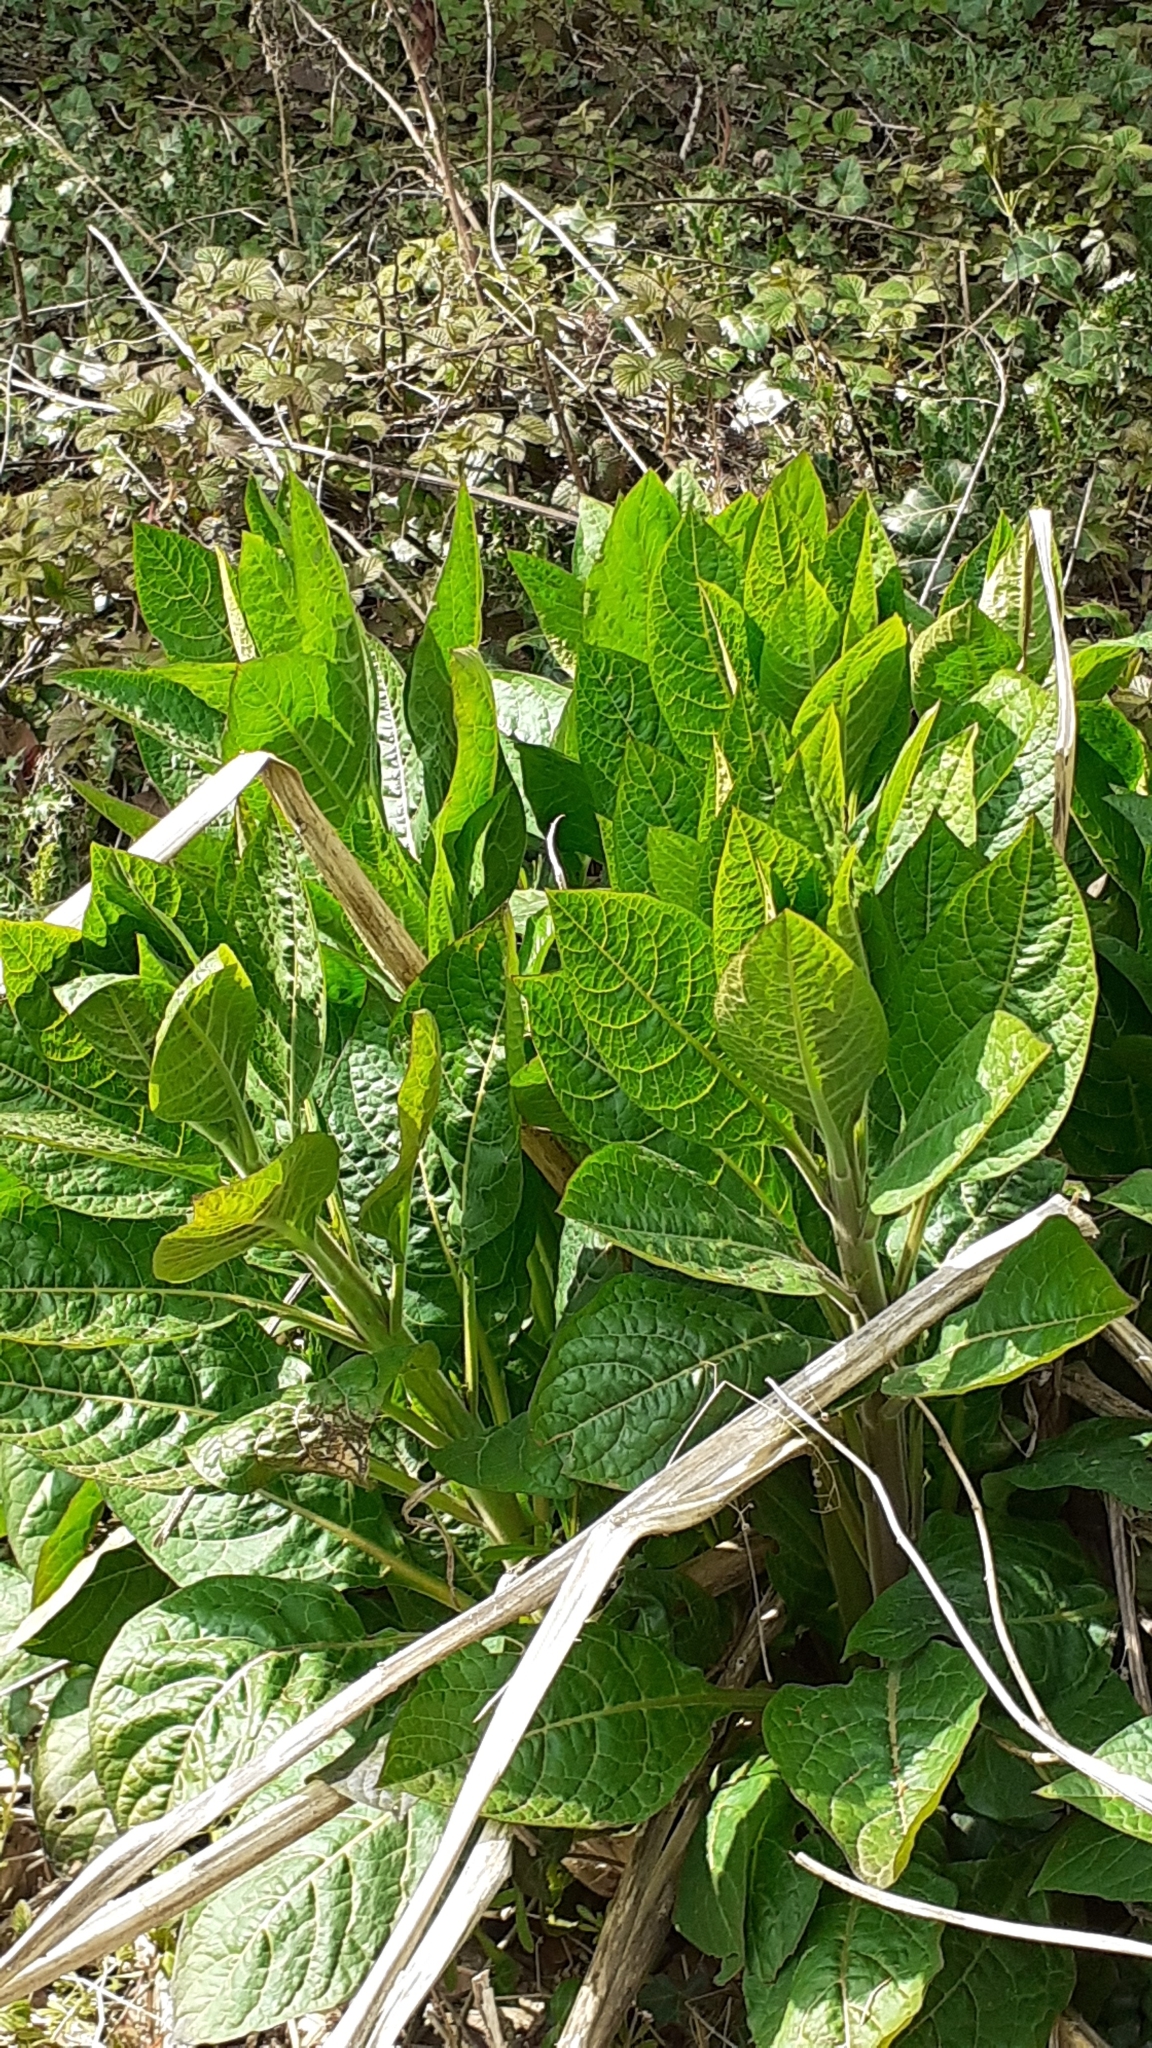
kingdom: Plantae
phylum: Tracheophyta
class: Magnoliopsida
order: Solanales
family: Solanaceae
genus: Atropa
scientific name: Atropa belladonna
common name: Deadly nightshade
